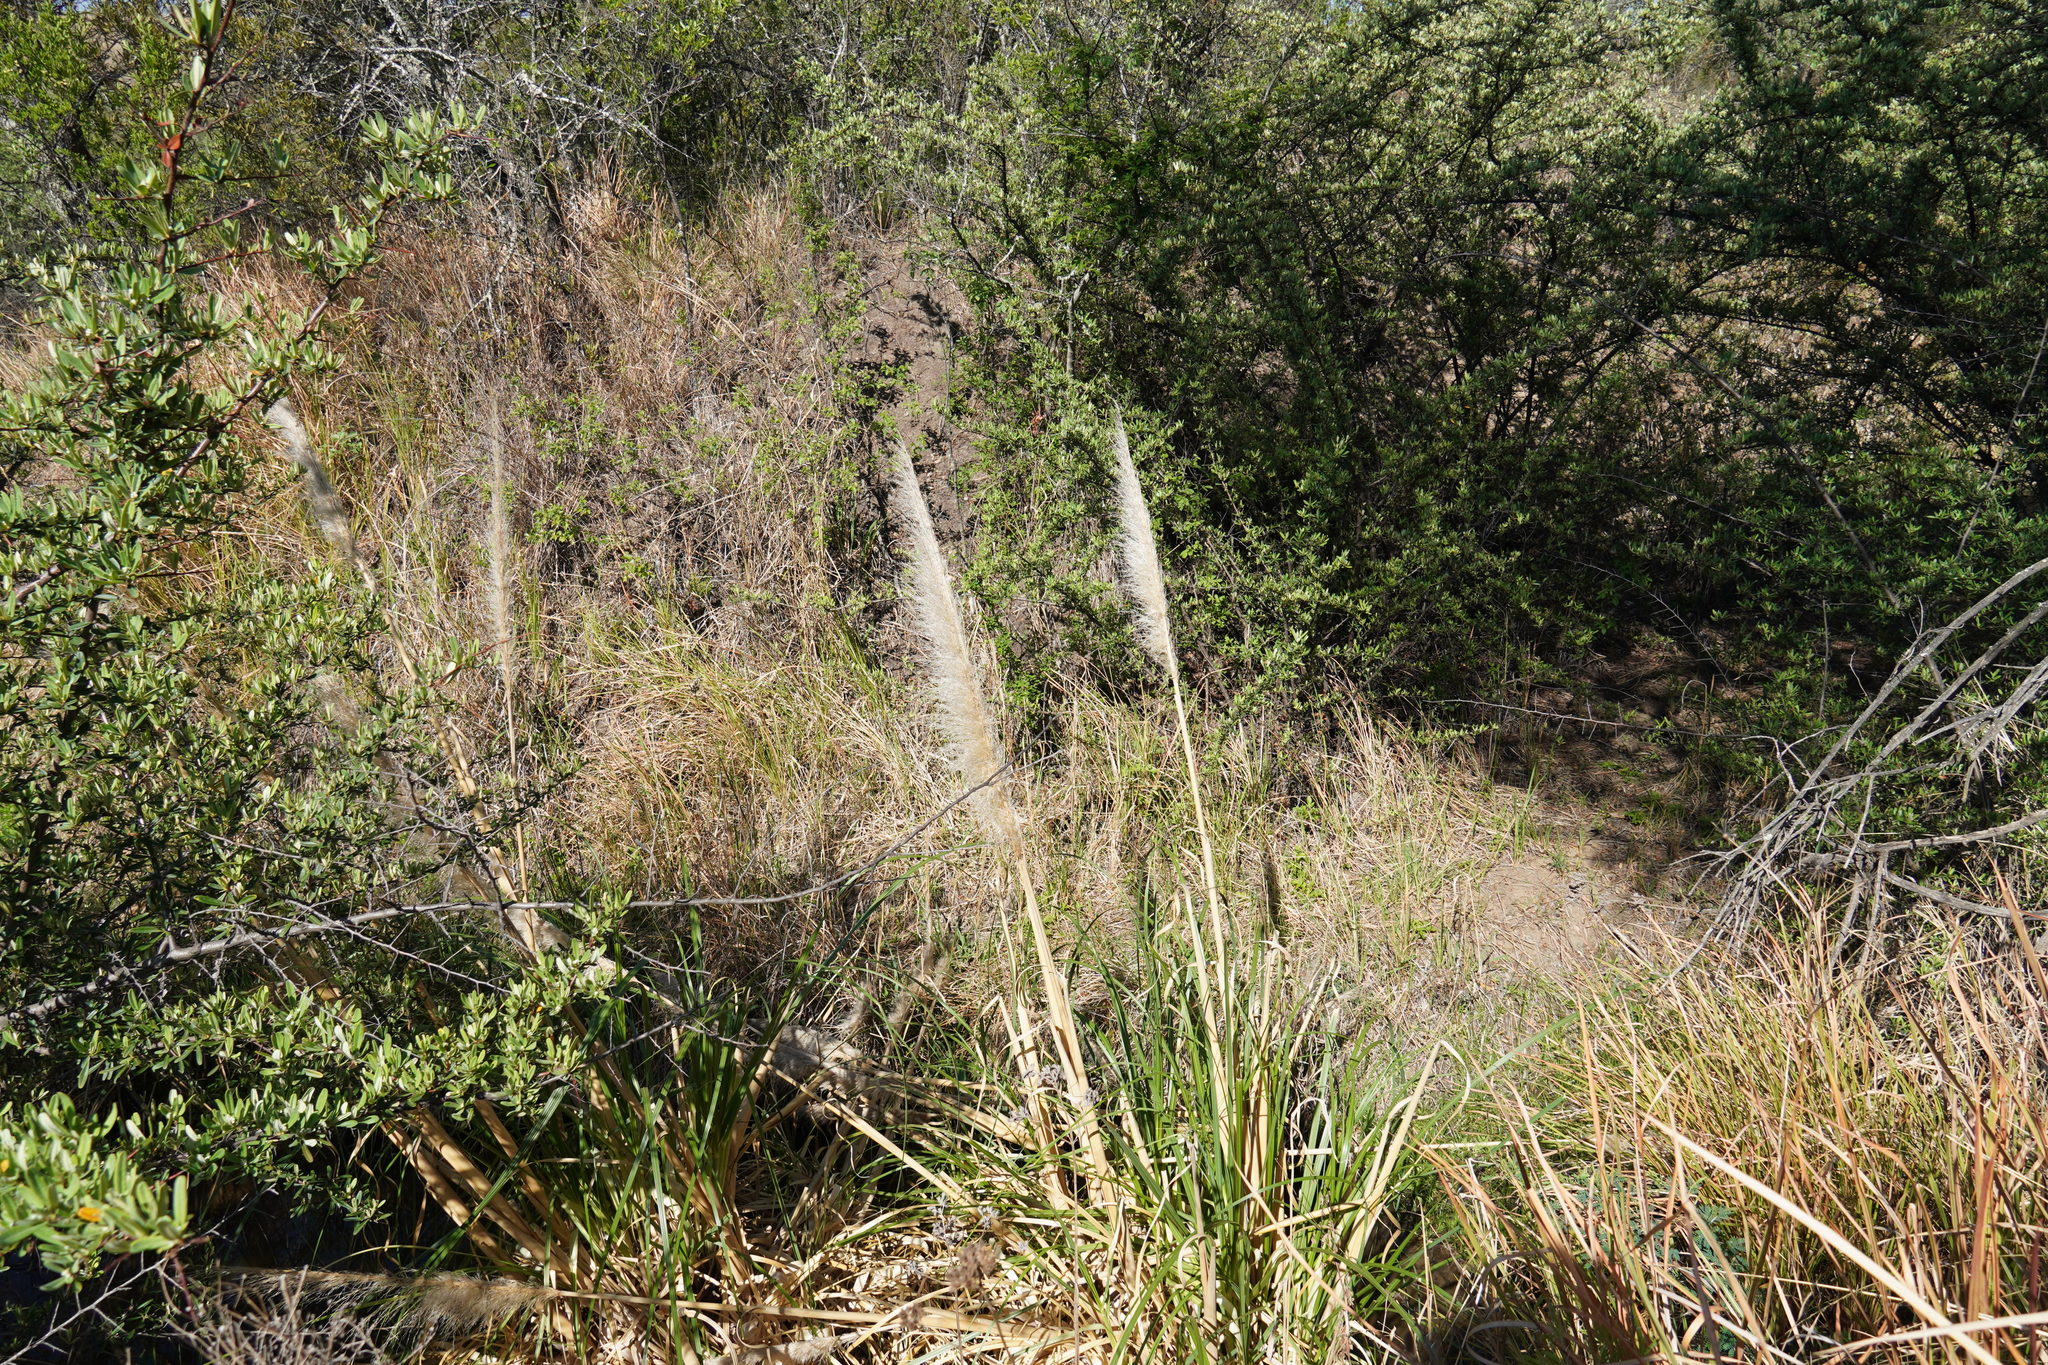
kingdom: Plantae
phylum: Tracheophyta
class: Liliopsida
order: Poales
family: Poaceae
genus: Cortaderia
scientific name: Cortaderia selloana
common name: Uruguayan pampas grass
